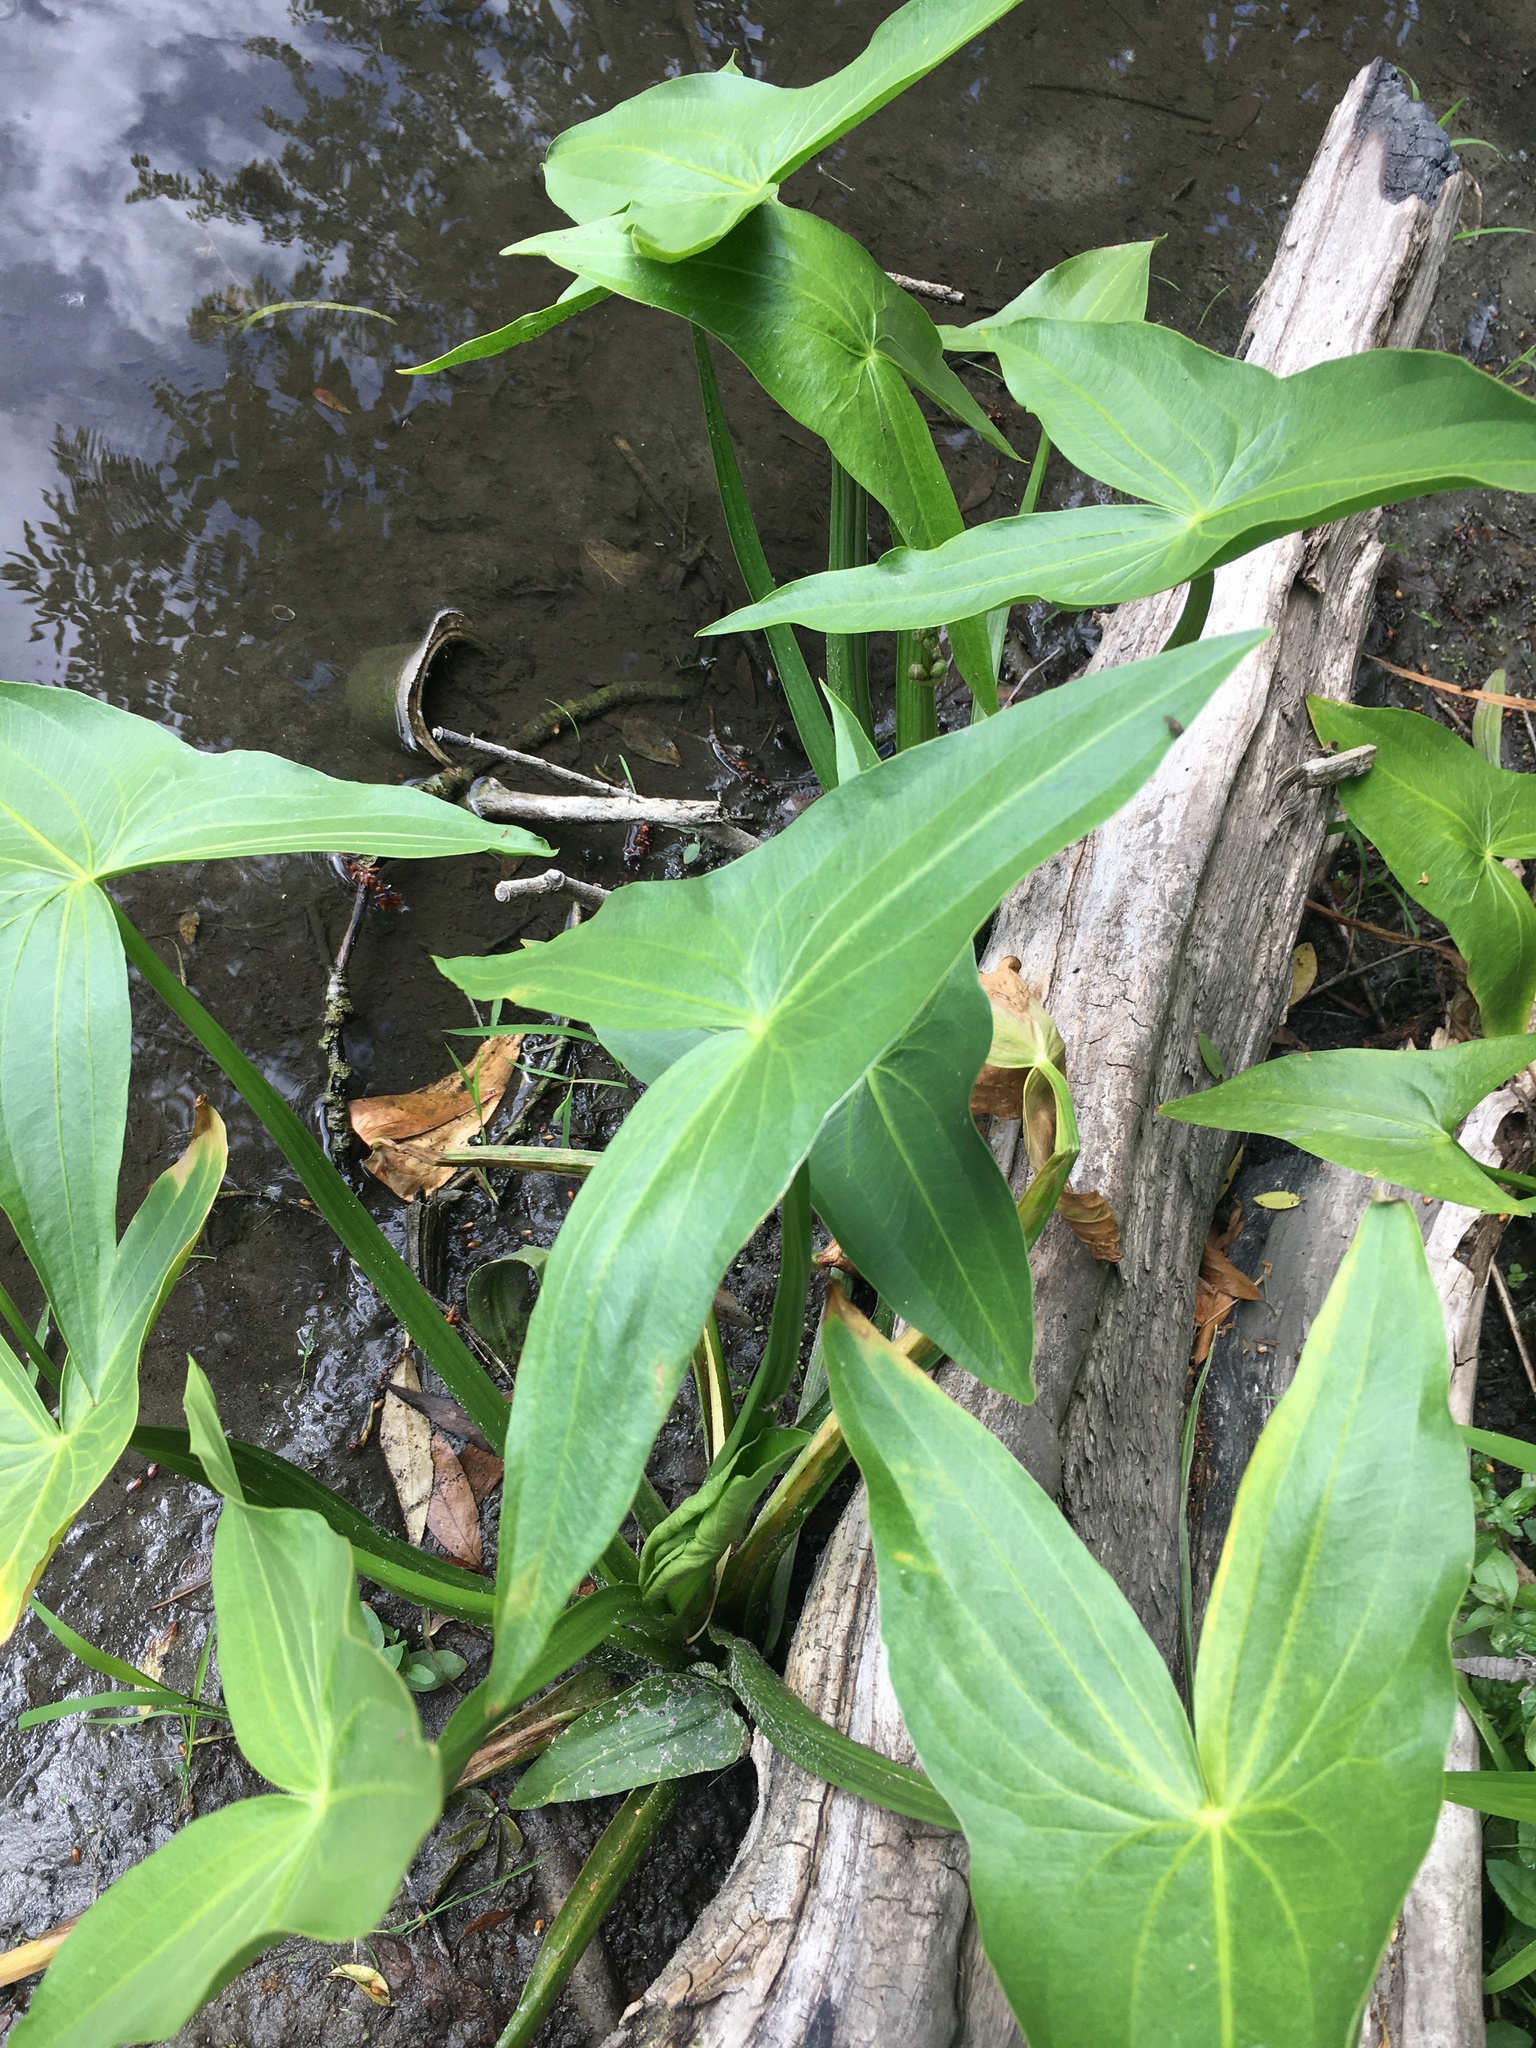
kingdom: Plantae
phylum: Tracheophyta
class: Liliopsida
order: Alismatales
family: Alismataceae
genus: Sagittaria
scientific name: Sagittaria sagittifolia
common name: Arrowhead
